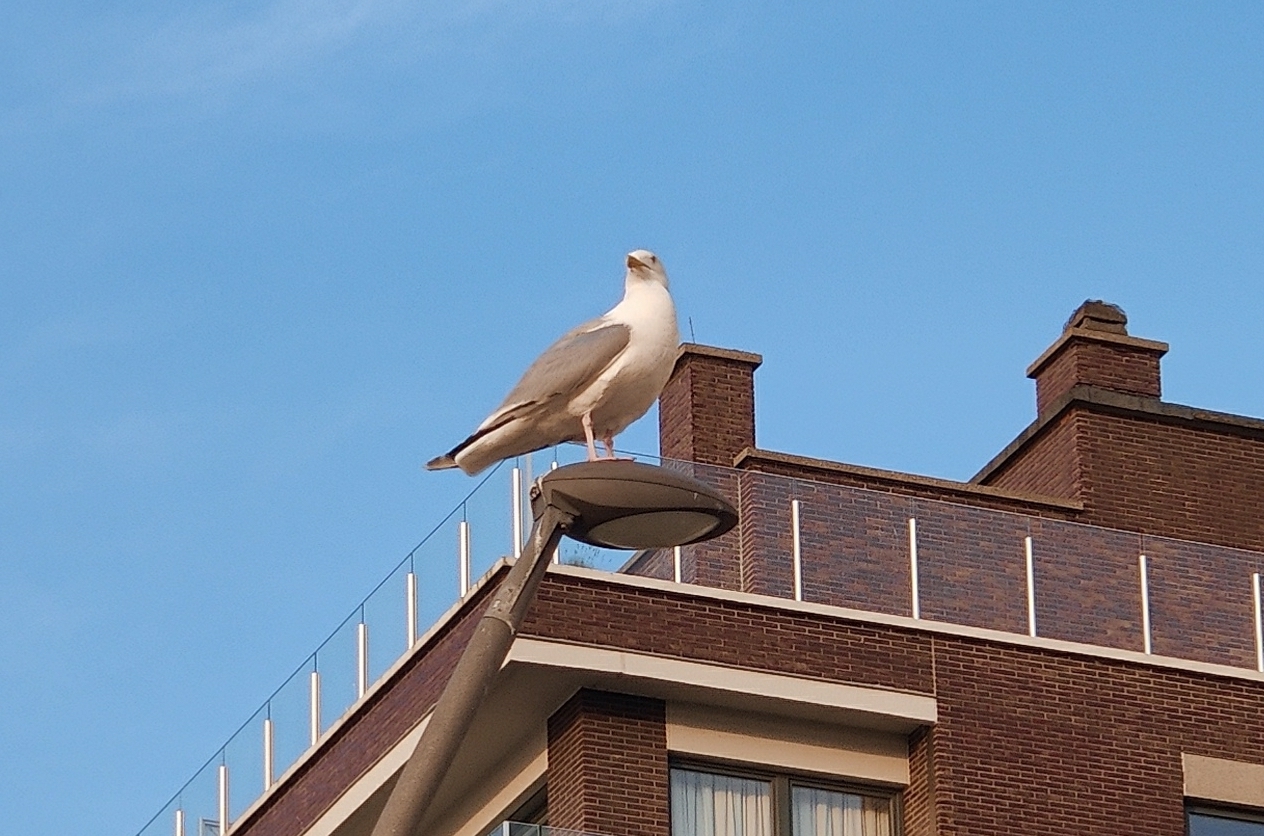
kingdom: Animalia
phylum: Chordata
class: Aves
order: Charadriiformes
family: Laridae
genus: Larus
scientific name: Larus argentatus
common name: Herring gull
